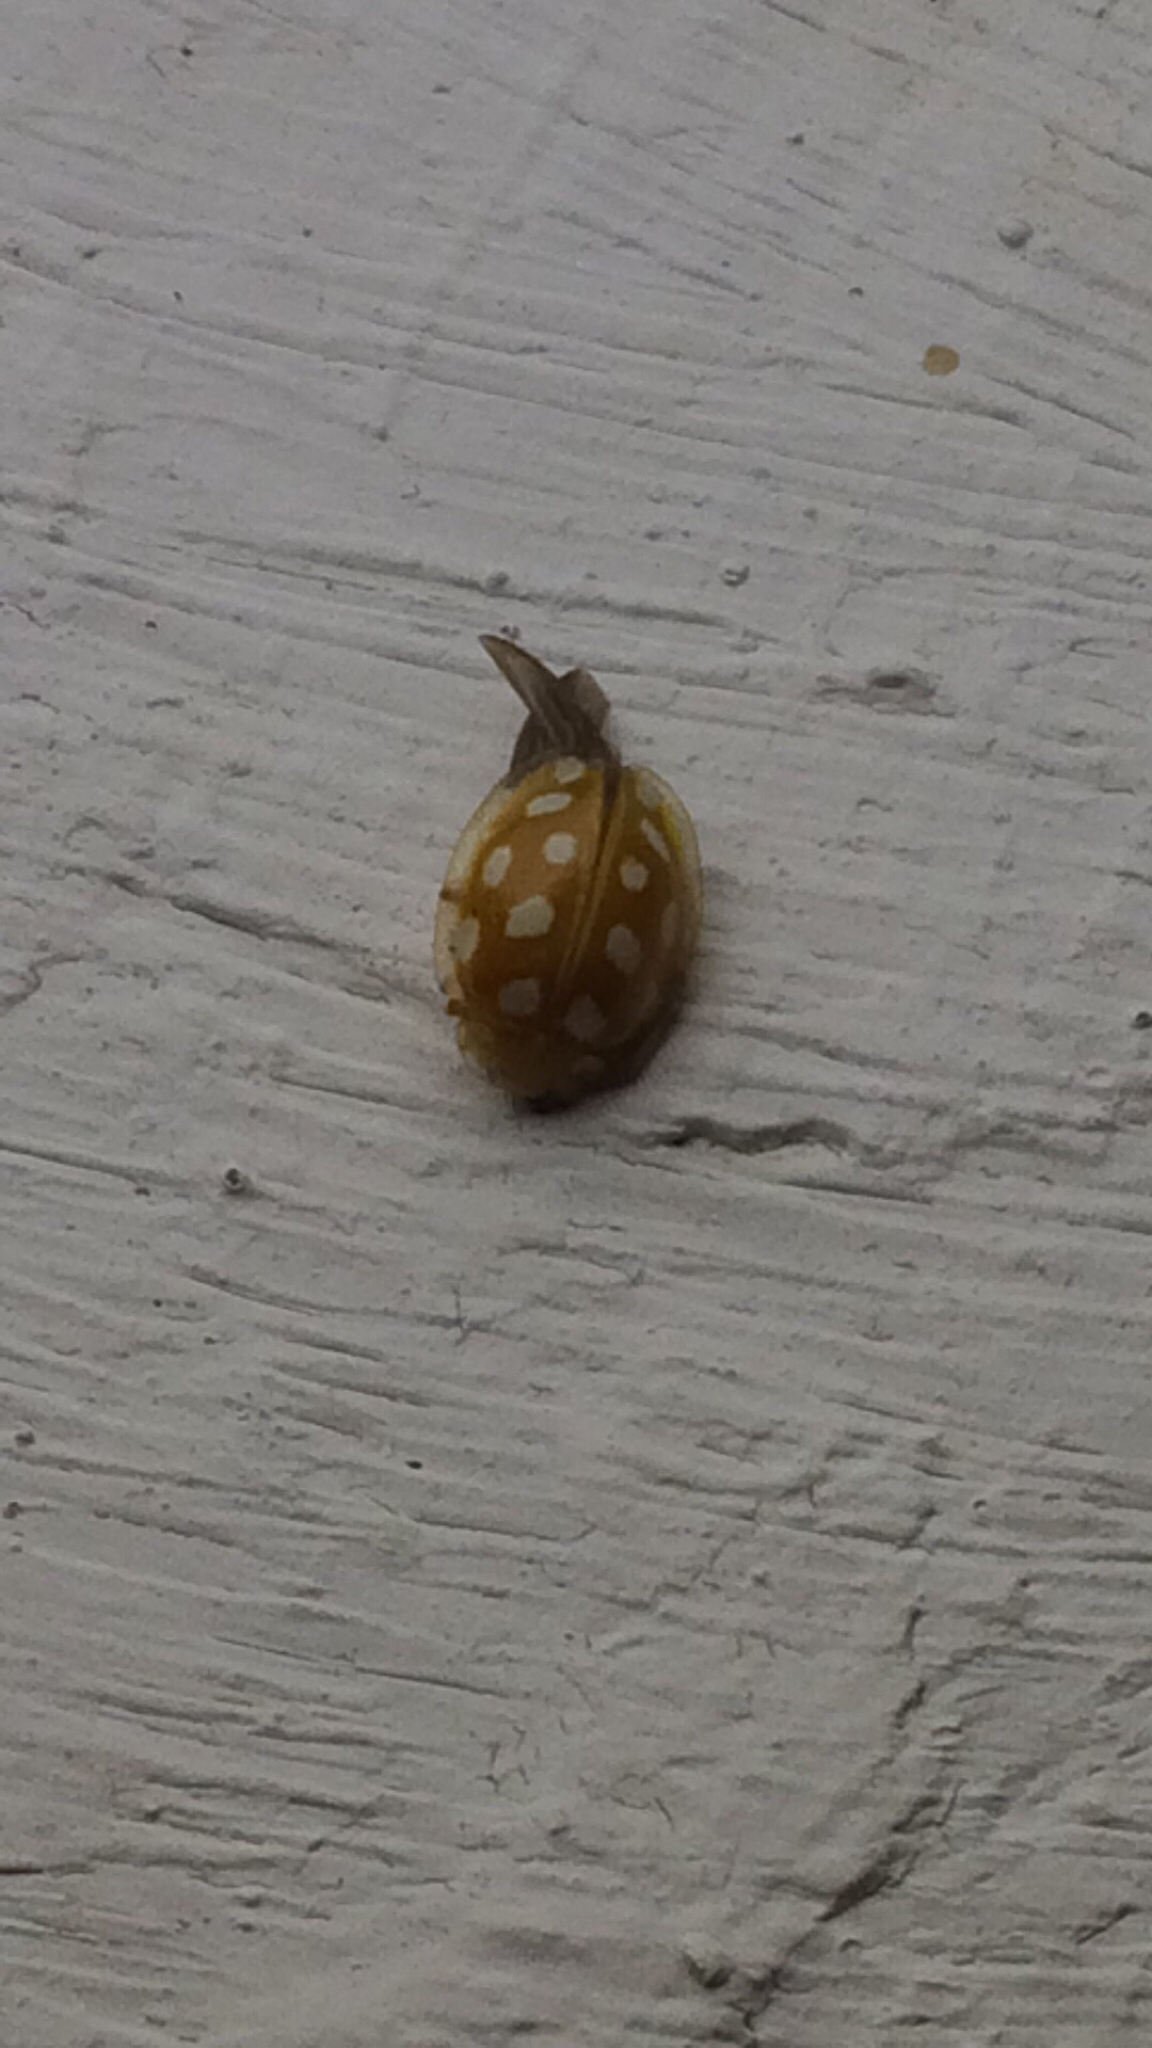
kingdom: Animalia
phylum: Arthropoda
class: Insecta
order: Coleoptera
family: Coccinellidae
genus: Halyzia
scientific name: Halyzia sedecimguttata
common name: Orange ladybird
